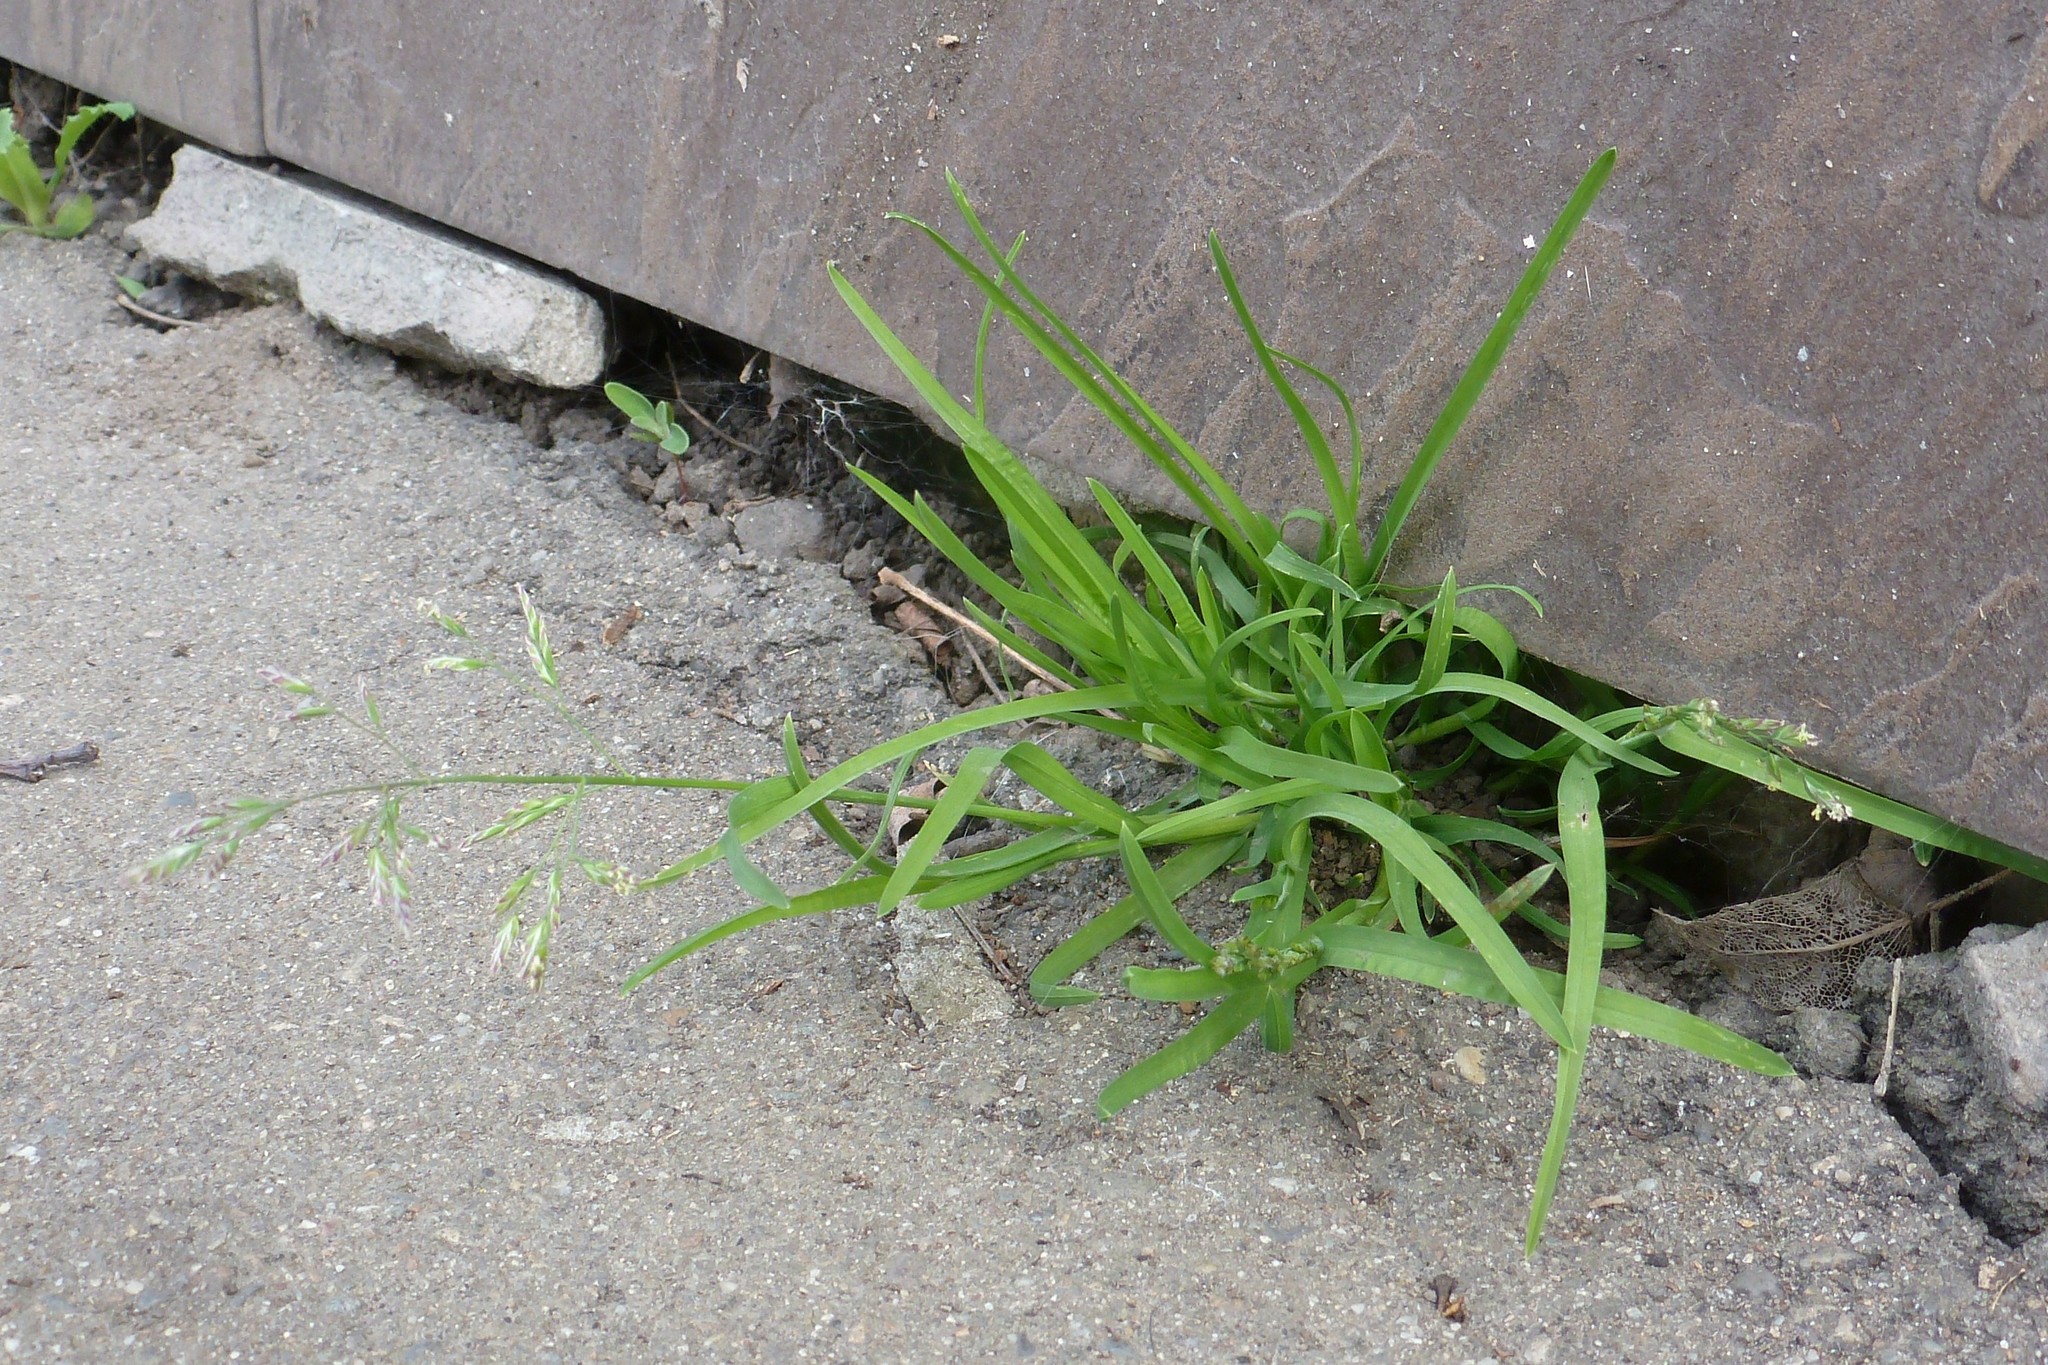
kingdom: Plantae
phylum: Tracheophyta
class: Liliopsida
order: Poales
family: Poaceae
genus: Poa
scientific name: Poa annua
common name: Annual bluegrass
